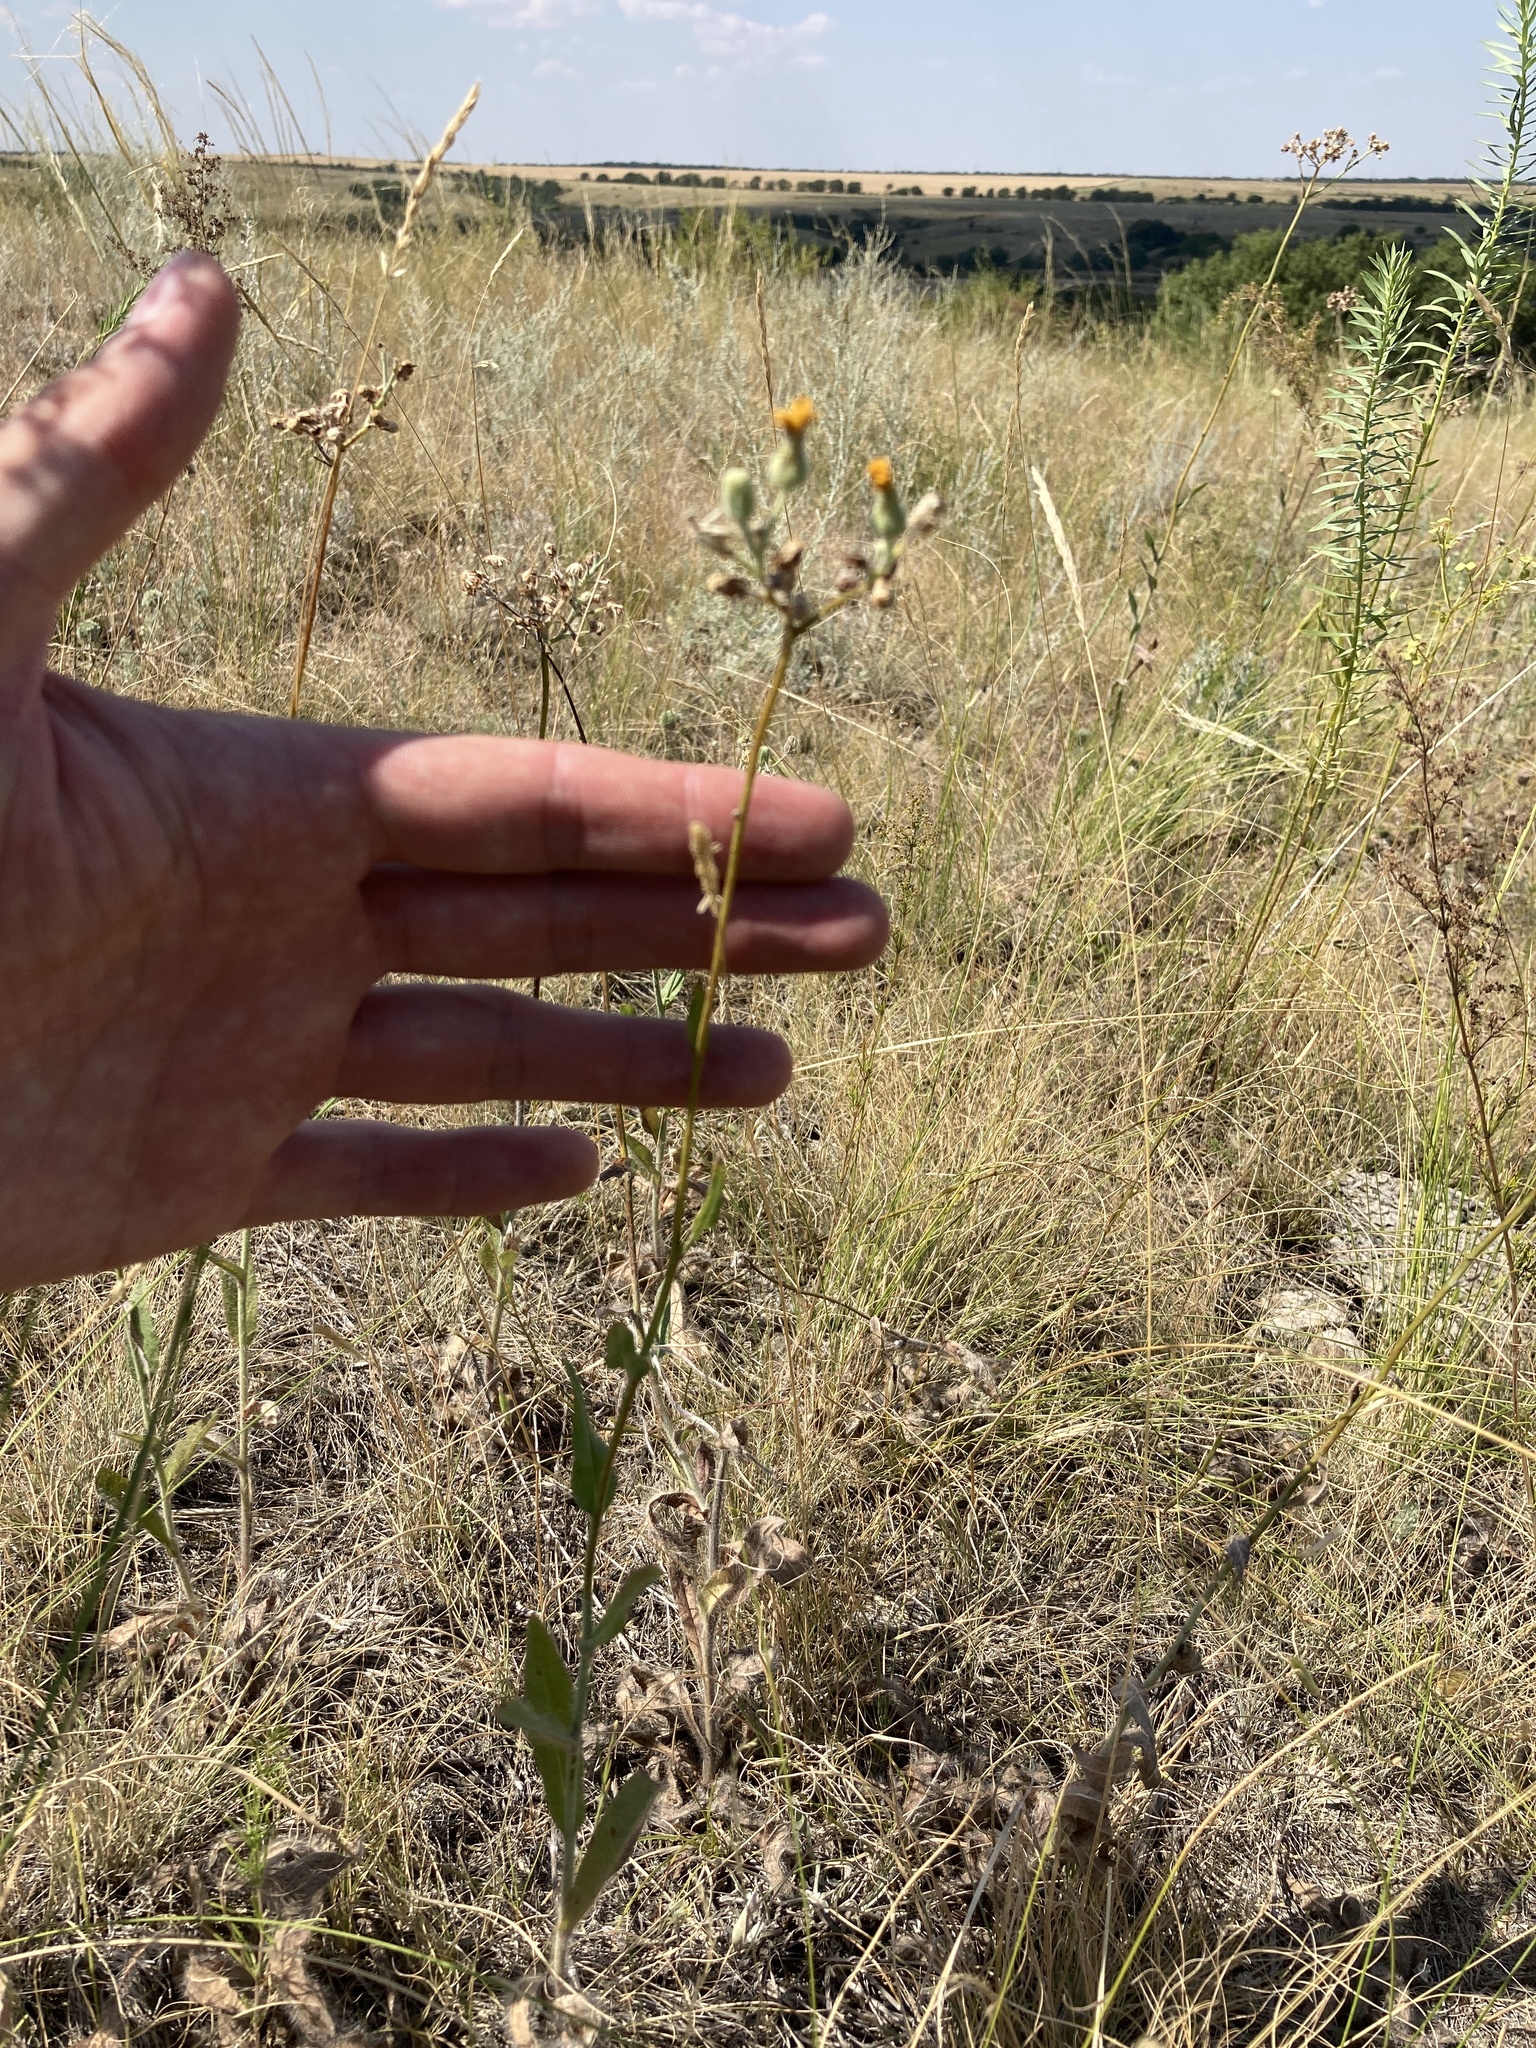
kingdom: Plantae
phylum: Tracheophyta
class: Magnoliopsida
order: Asterales
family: Asteraceae
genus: Pilosella
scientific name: Pilosella echioides
